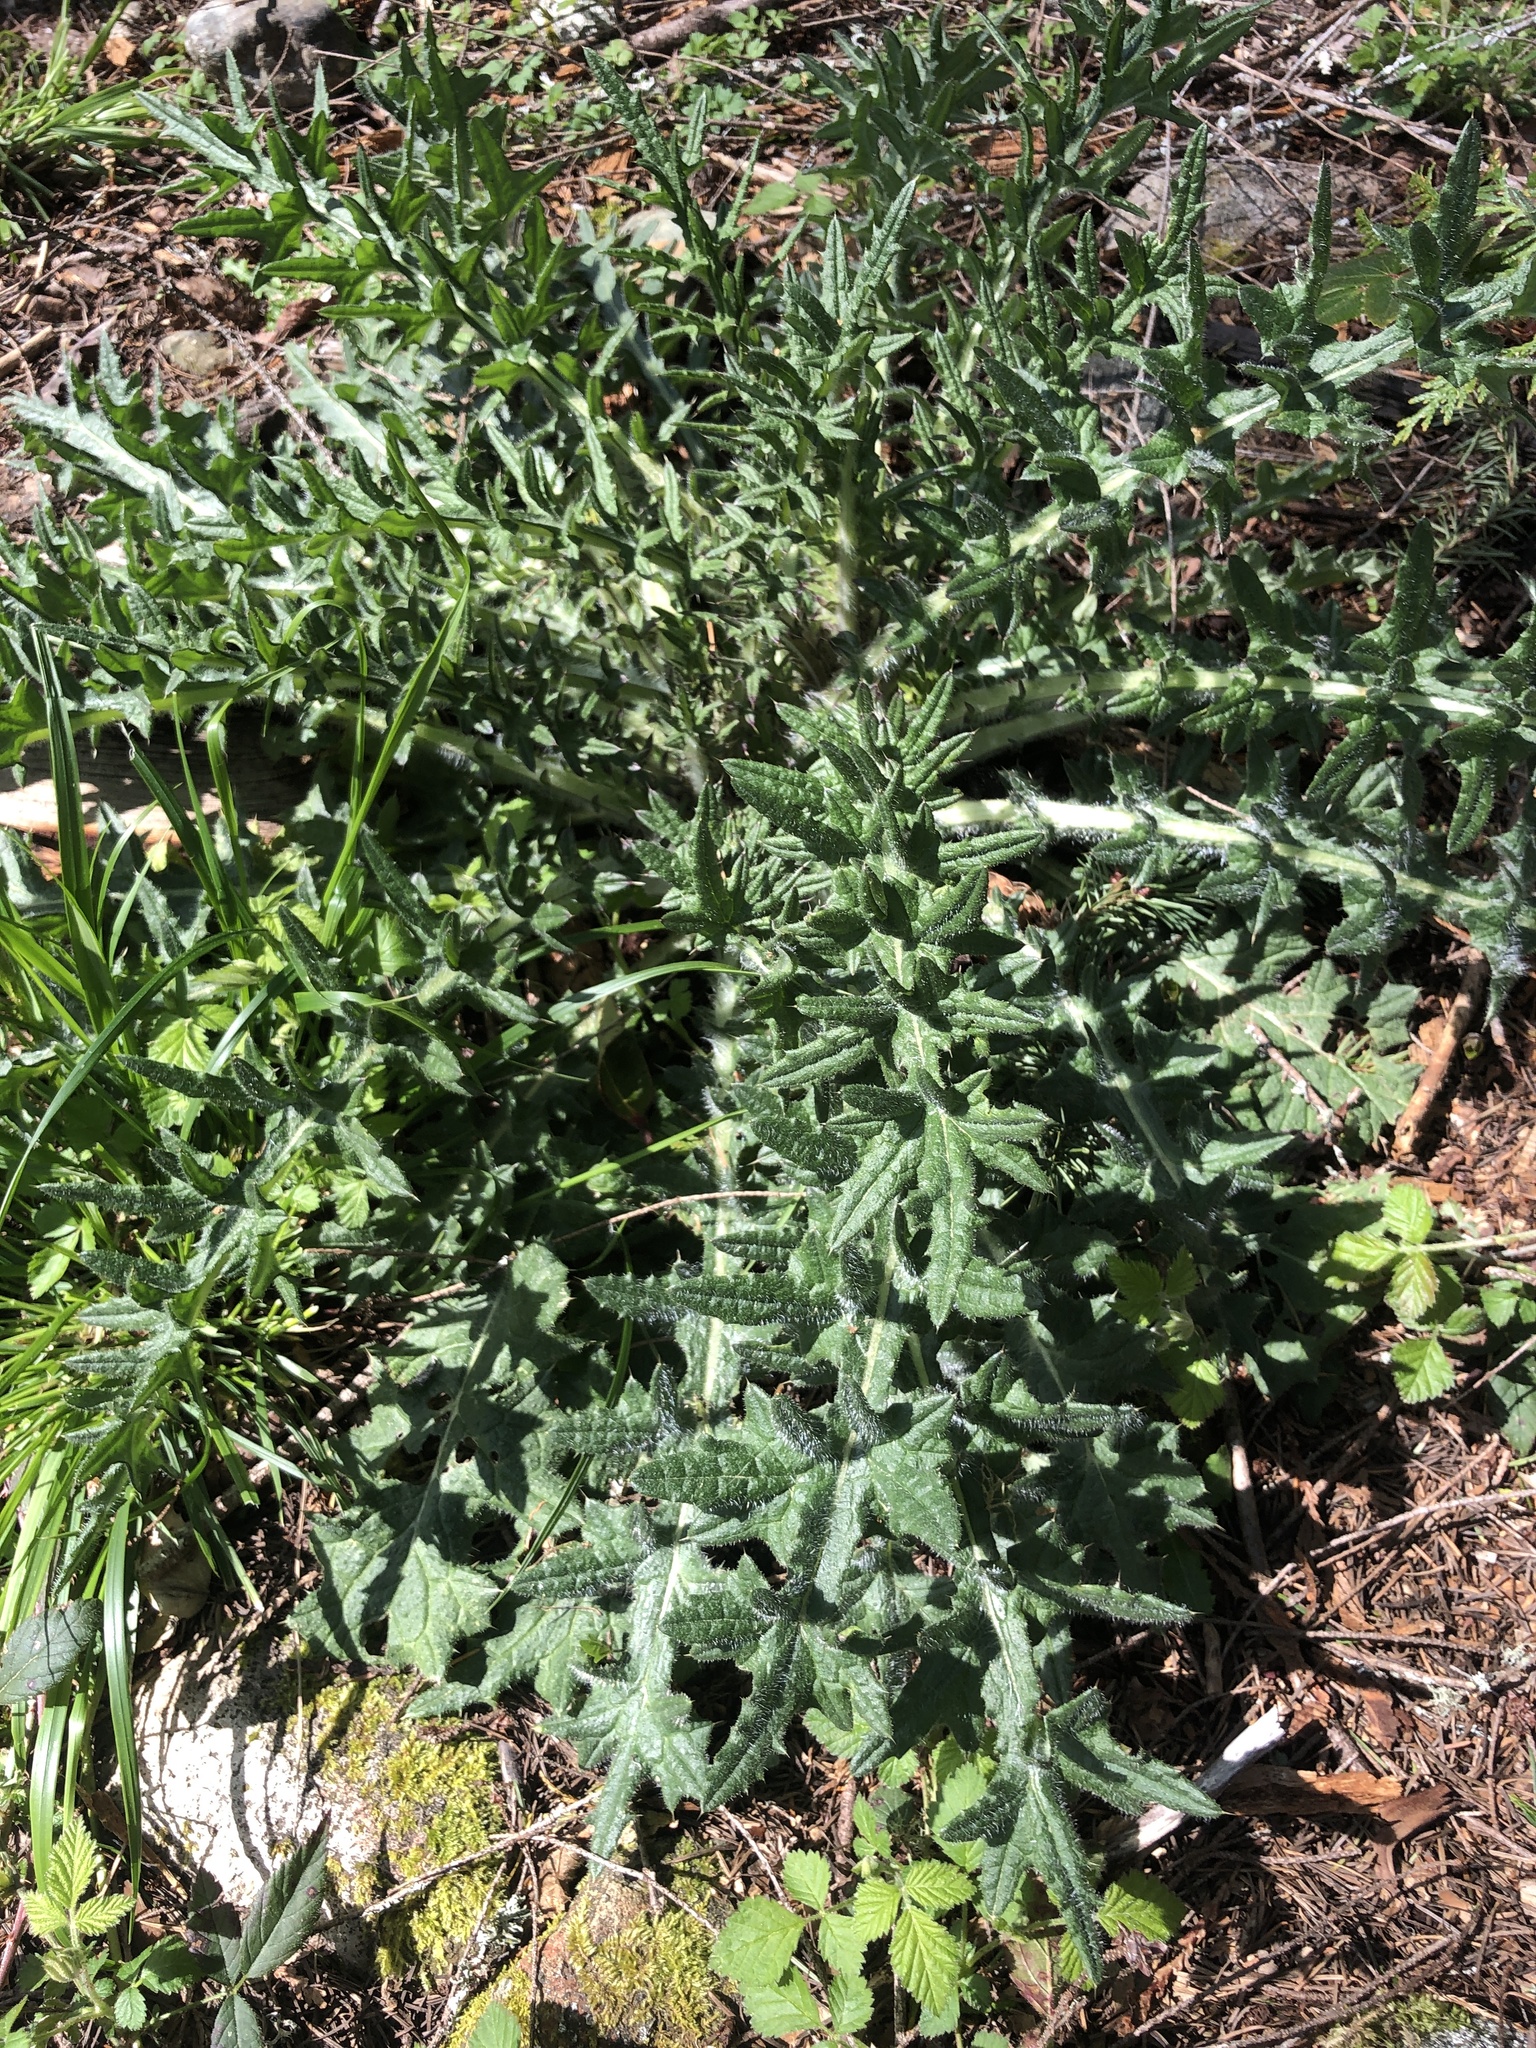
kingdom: Plantae
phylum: Tracheophyta
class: Magnoliopsida
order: Asterales
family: Asteraceae
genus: Cirsium
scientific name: Cirsium vulgare
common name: Bull thistle
